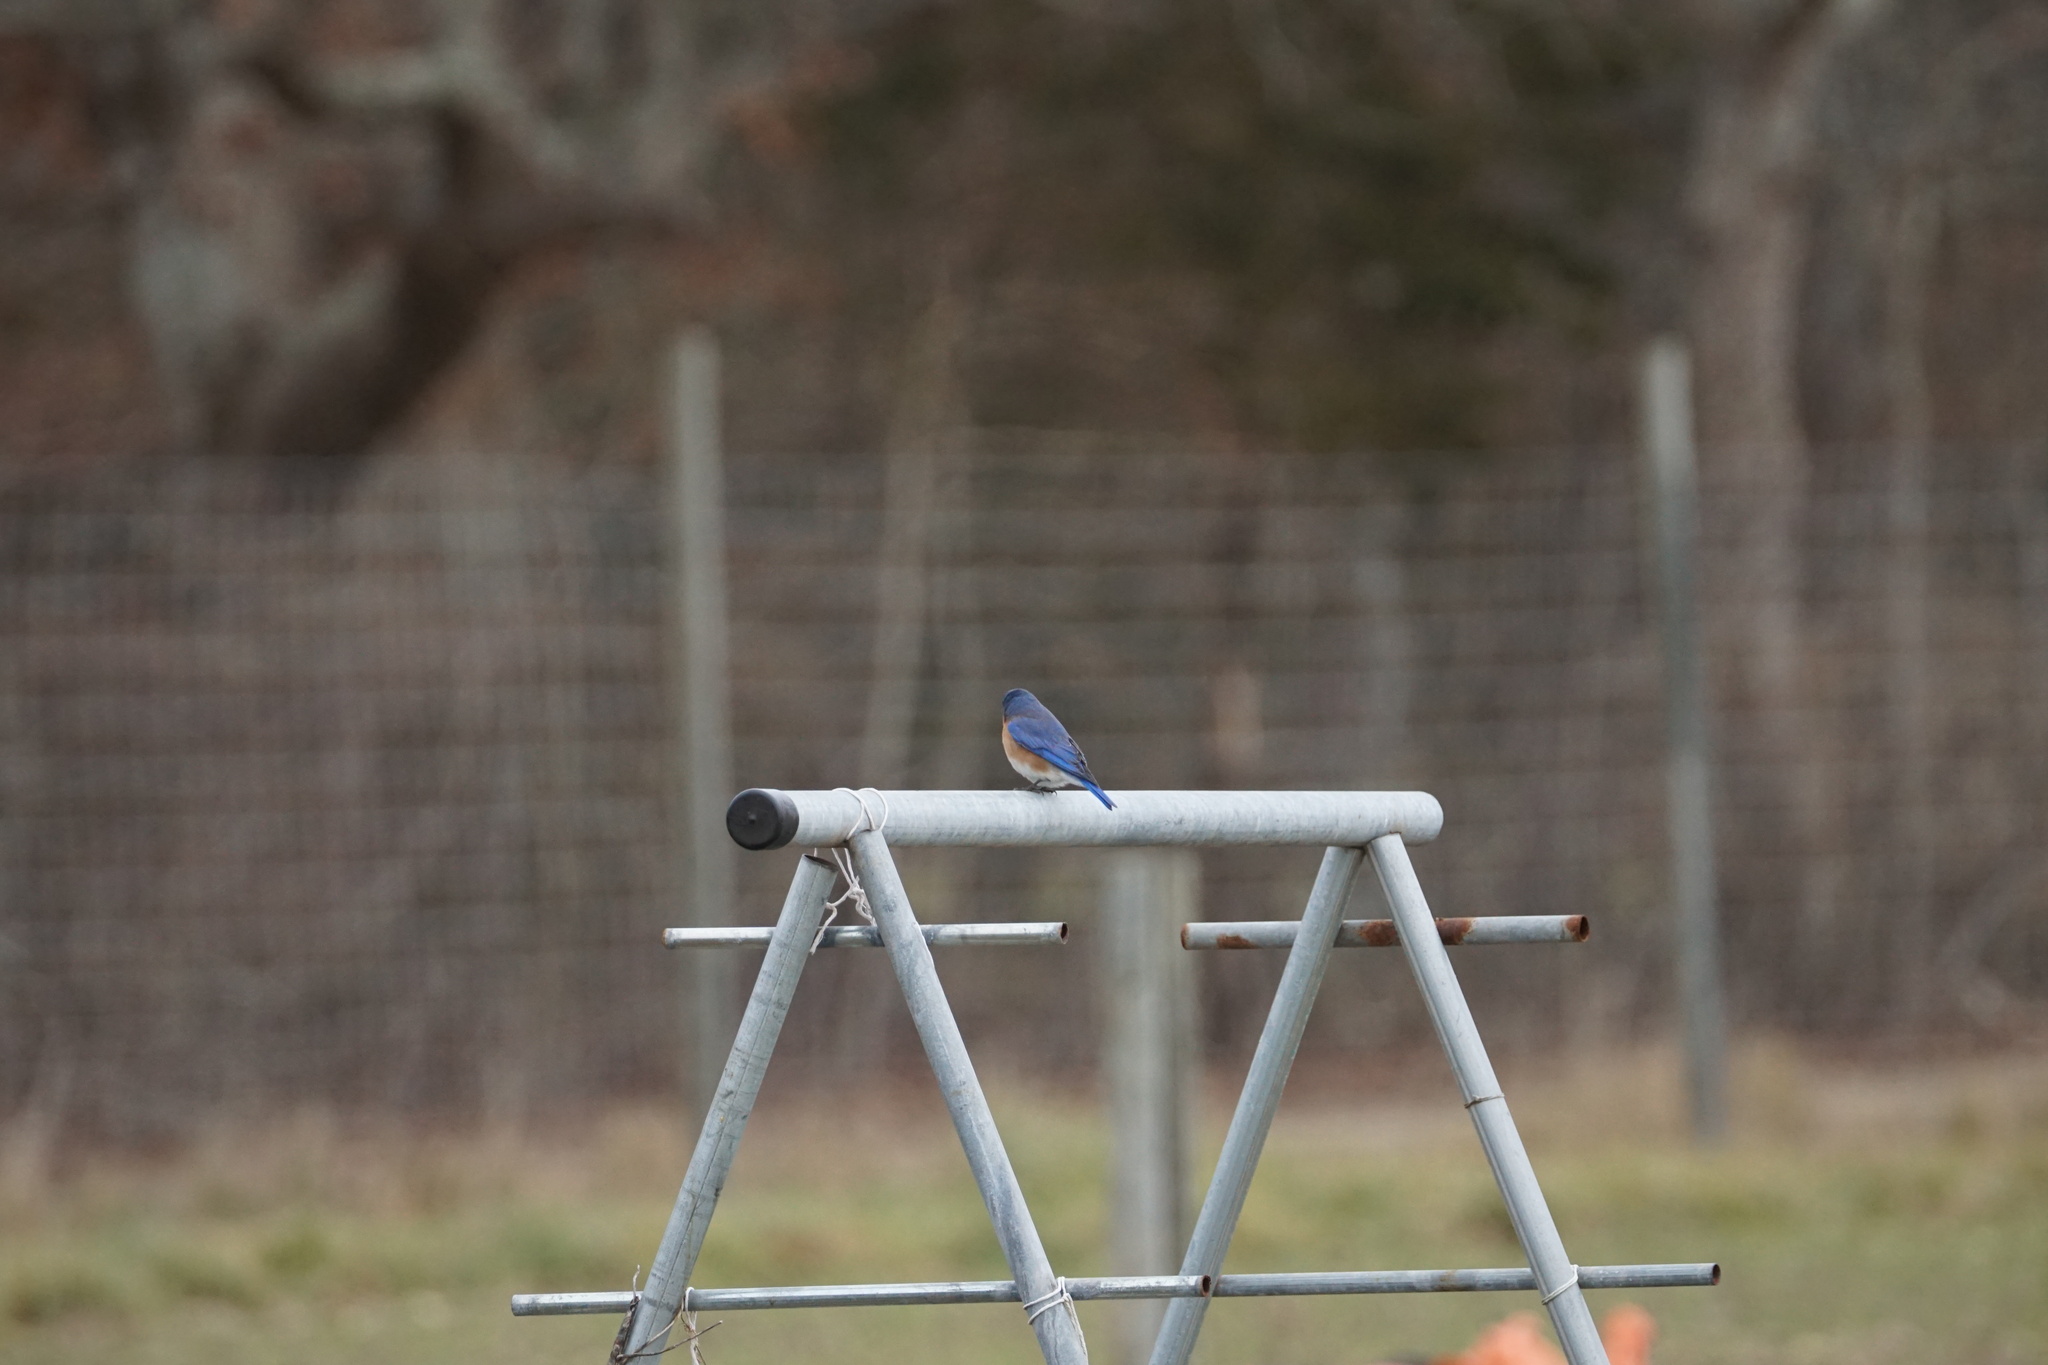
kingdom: Animalia
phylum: Chordata
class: Aves
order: Passeriformes
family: Turdidae
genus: Sialia
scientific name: Sialia sialis
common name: Eastern bluebird
